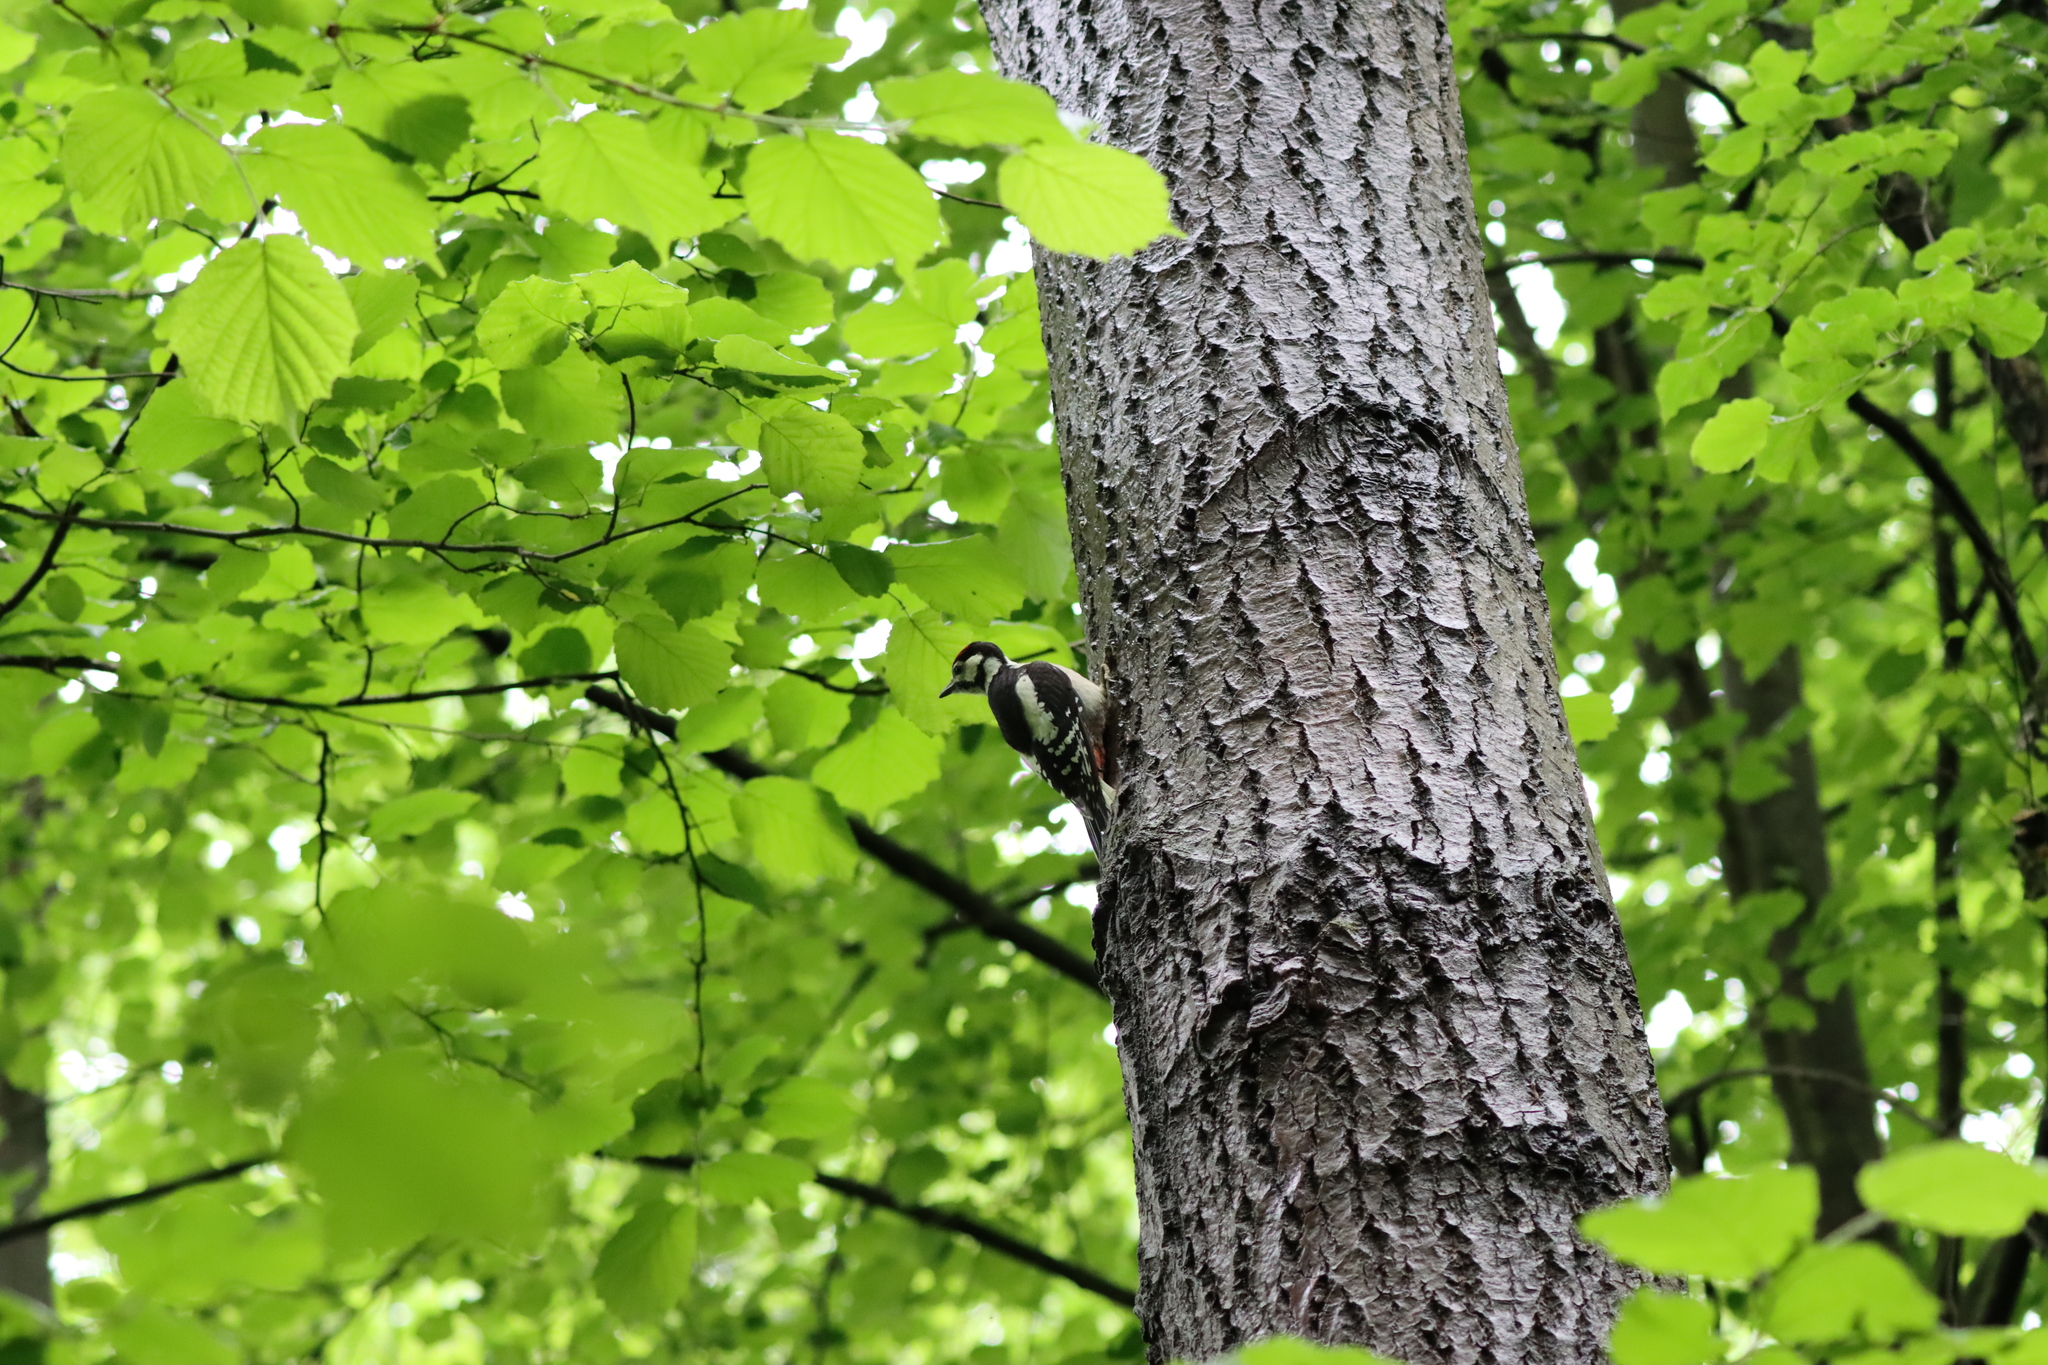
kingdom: Animalia
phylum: Chordata
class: Aves
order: Piciformes
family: Picidae
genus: Dendrocopos
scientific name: Dendrocopos major
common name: Great spotted woodpecker
